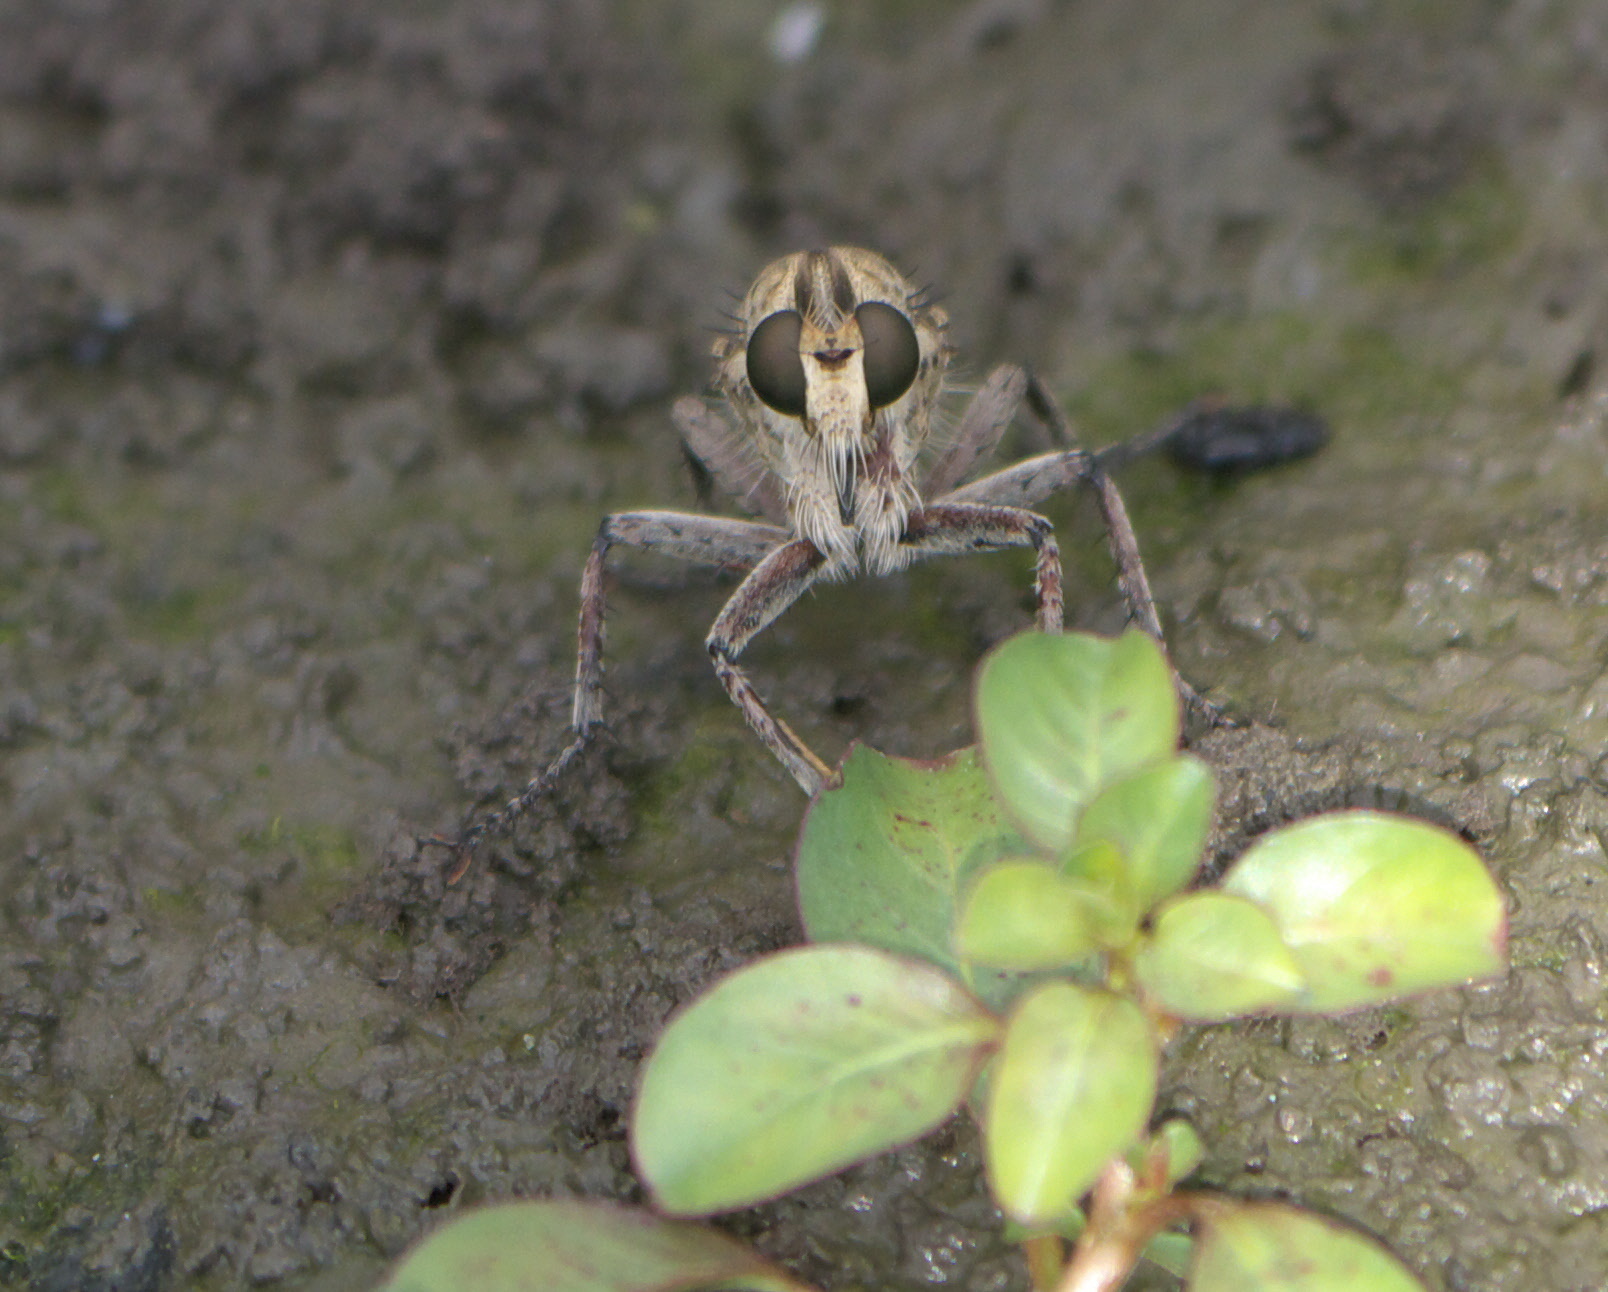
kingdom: Animalia
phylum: Arthropoda
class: Insecta
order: Diptera
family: Asilidae
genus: Triorla
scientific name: Triorla interrupta
